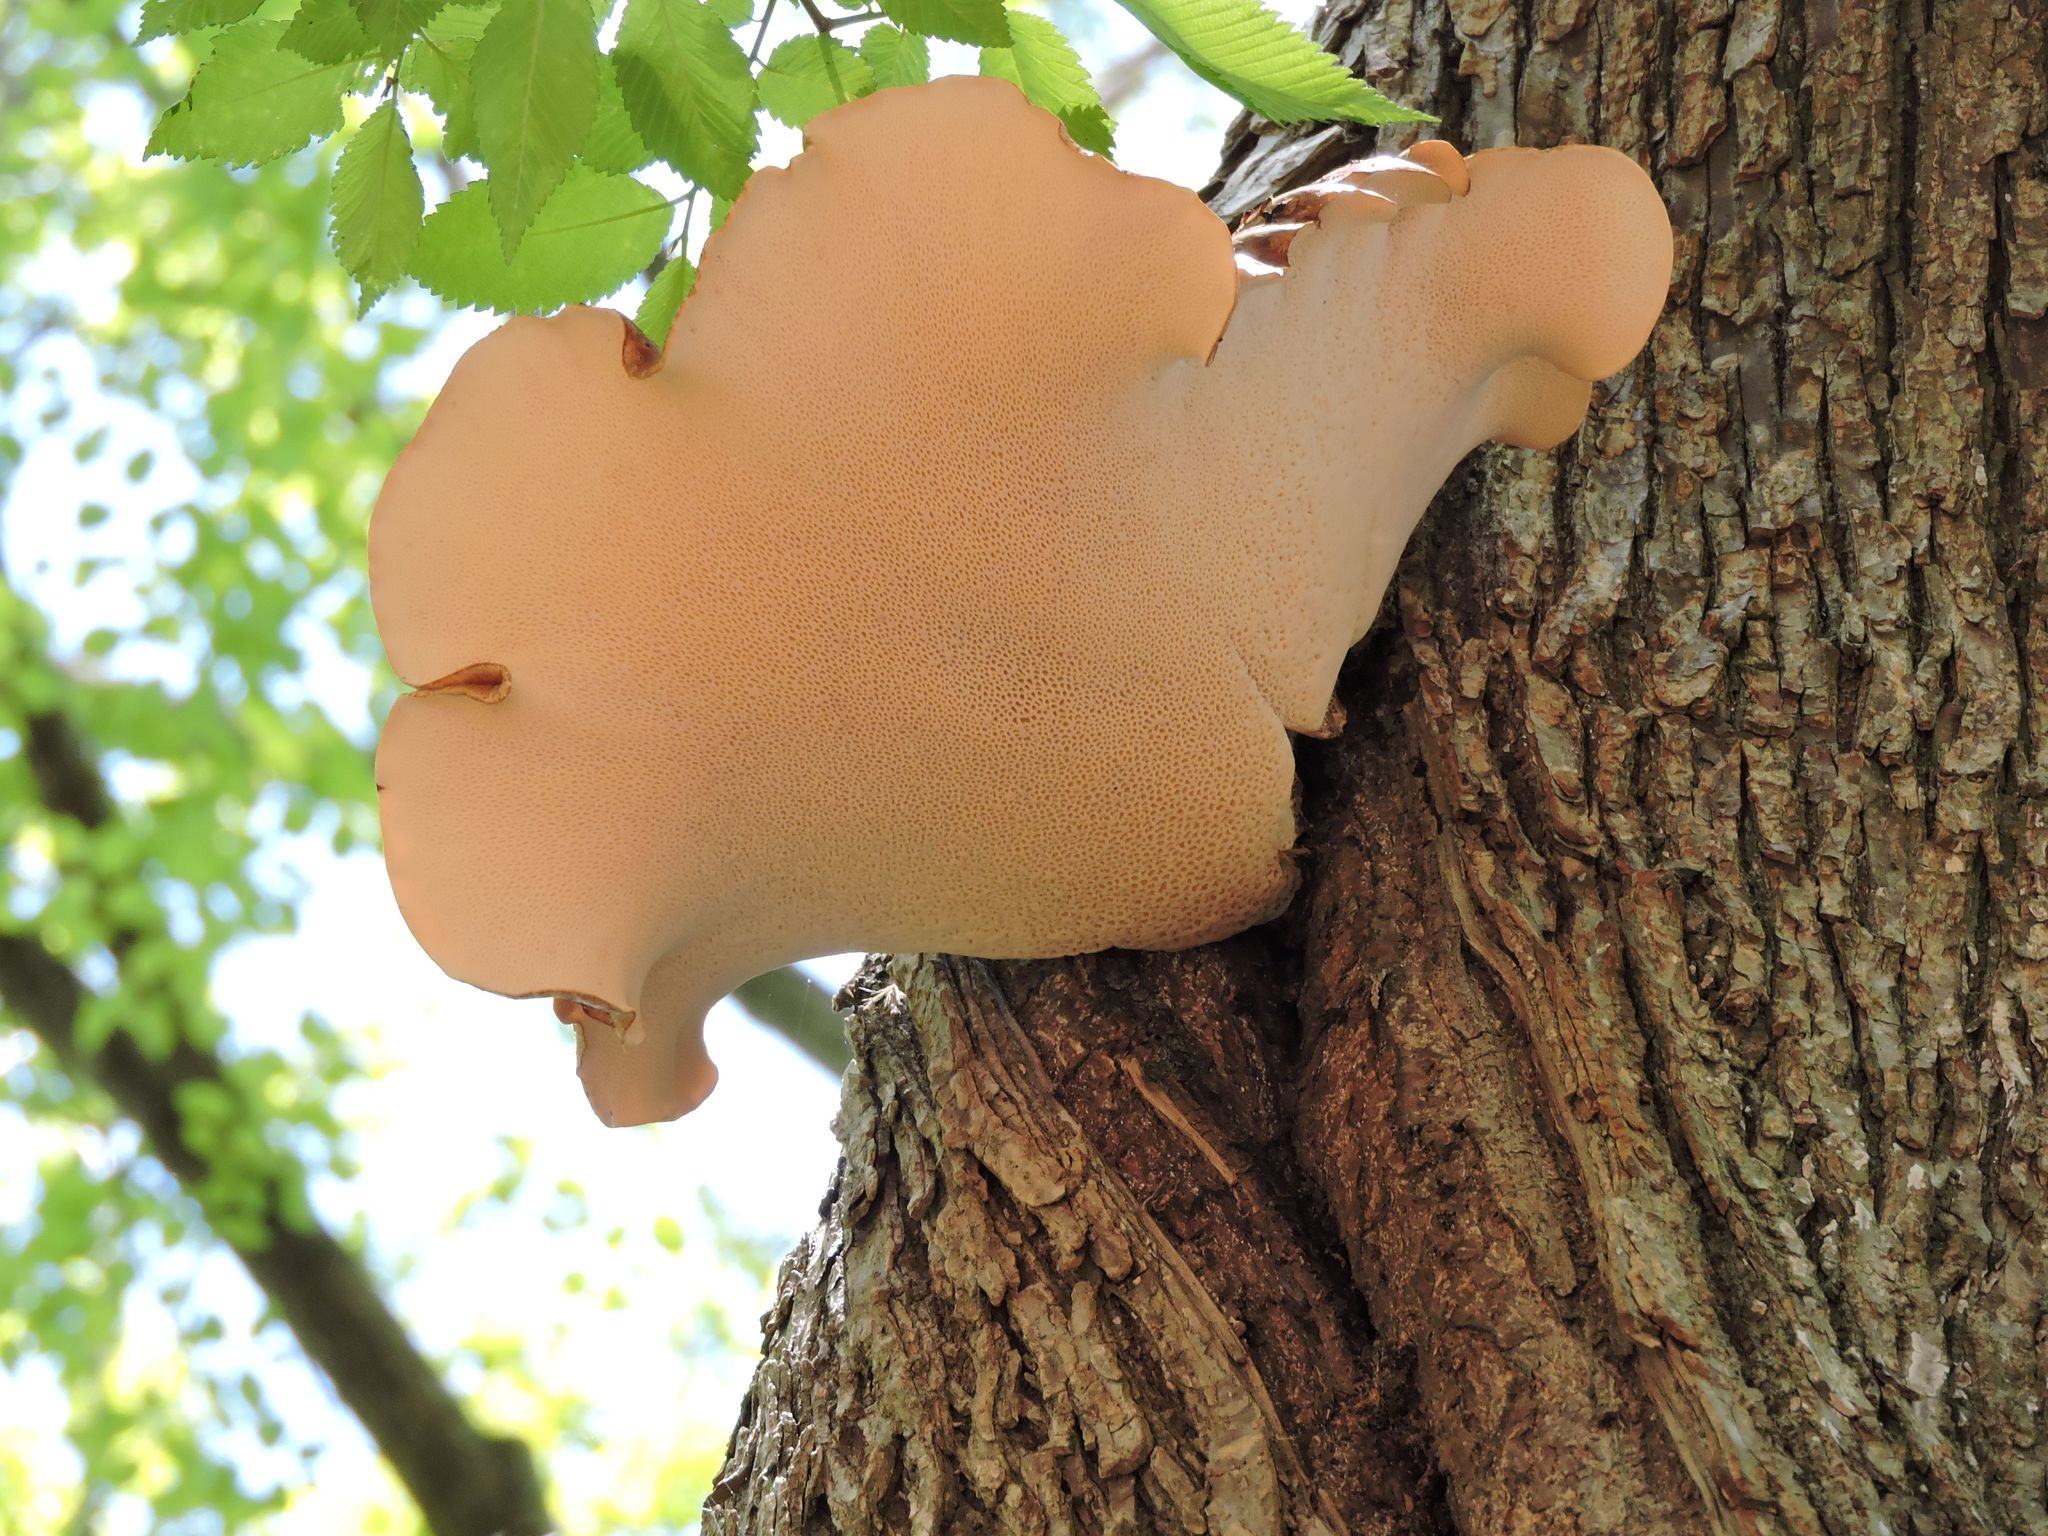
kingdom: Fungi
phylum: Basidiomycota
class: Agaricomycetes
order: Polyporales
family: Polyporaceae
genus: Cerioporus
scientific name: Cerioporus squamosus
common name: Dryad's saddle
